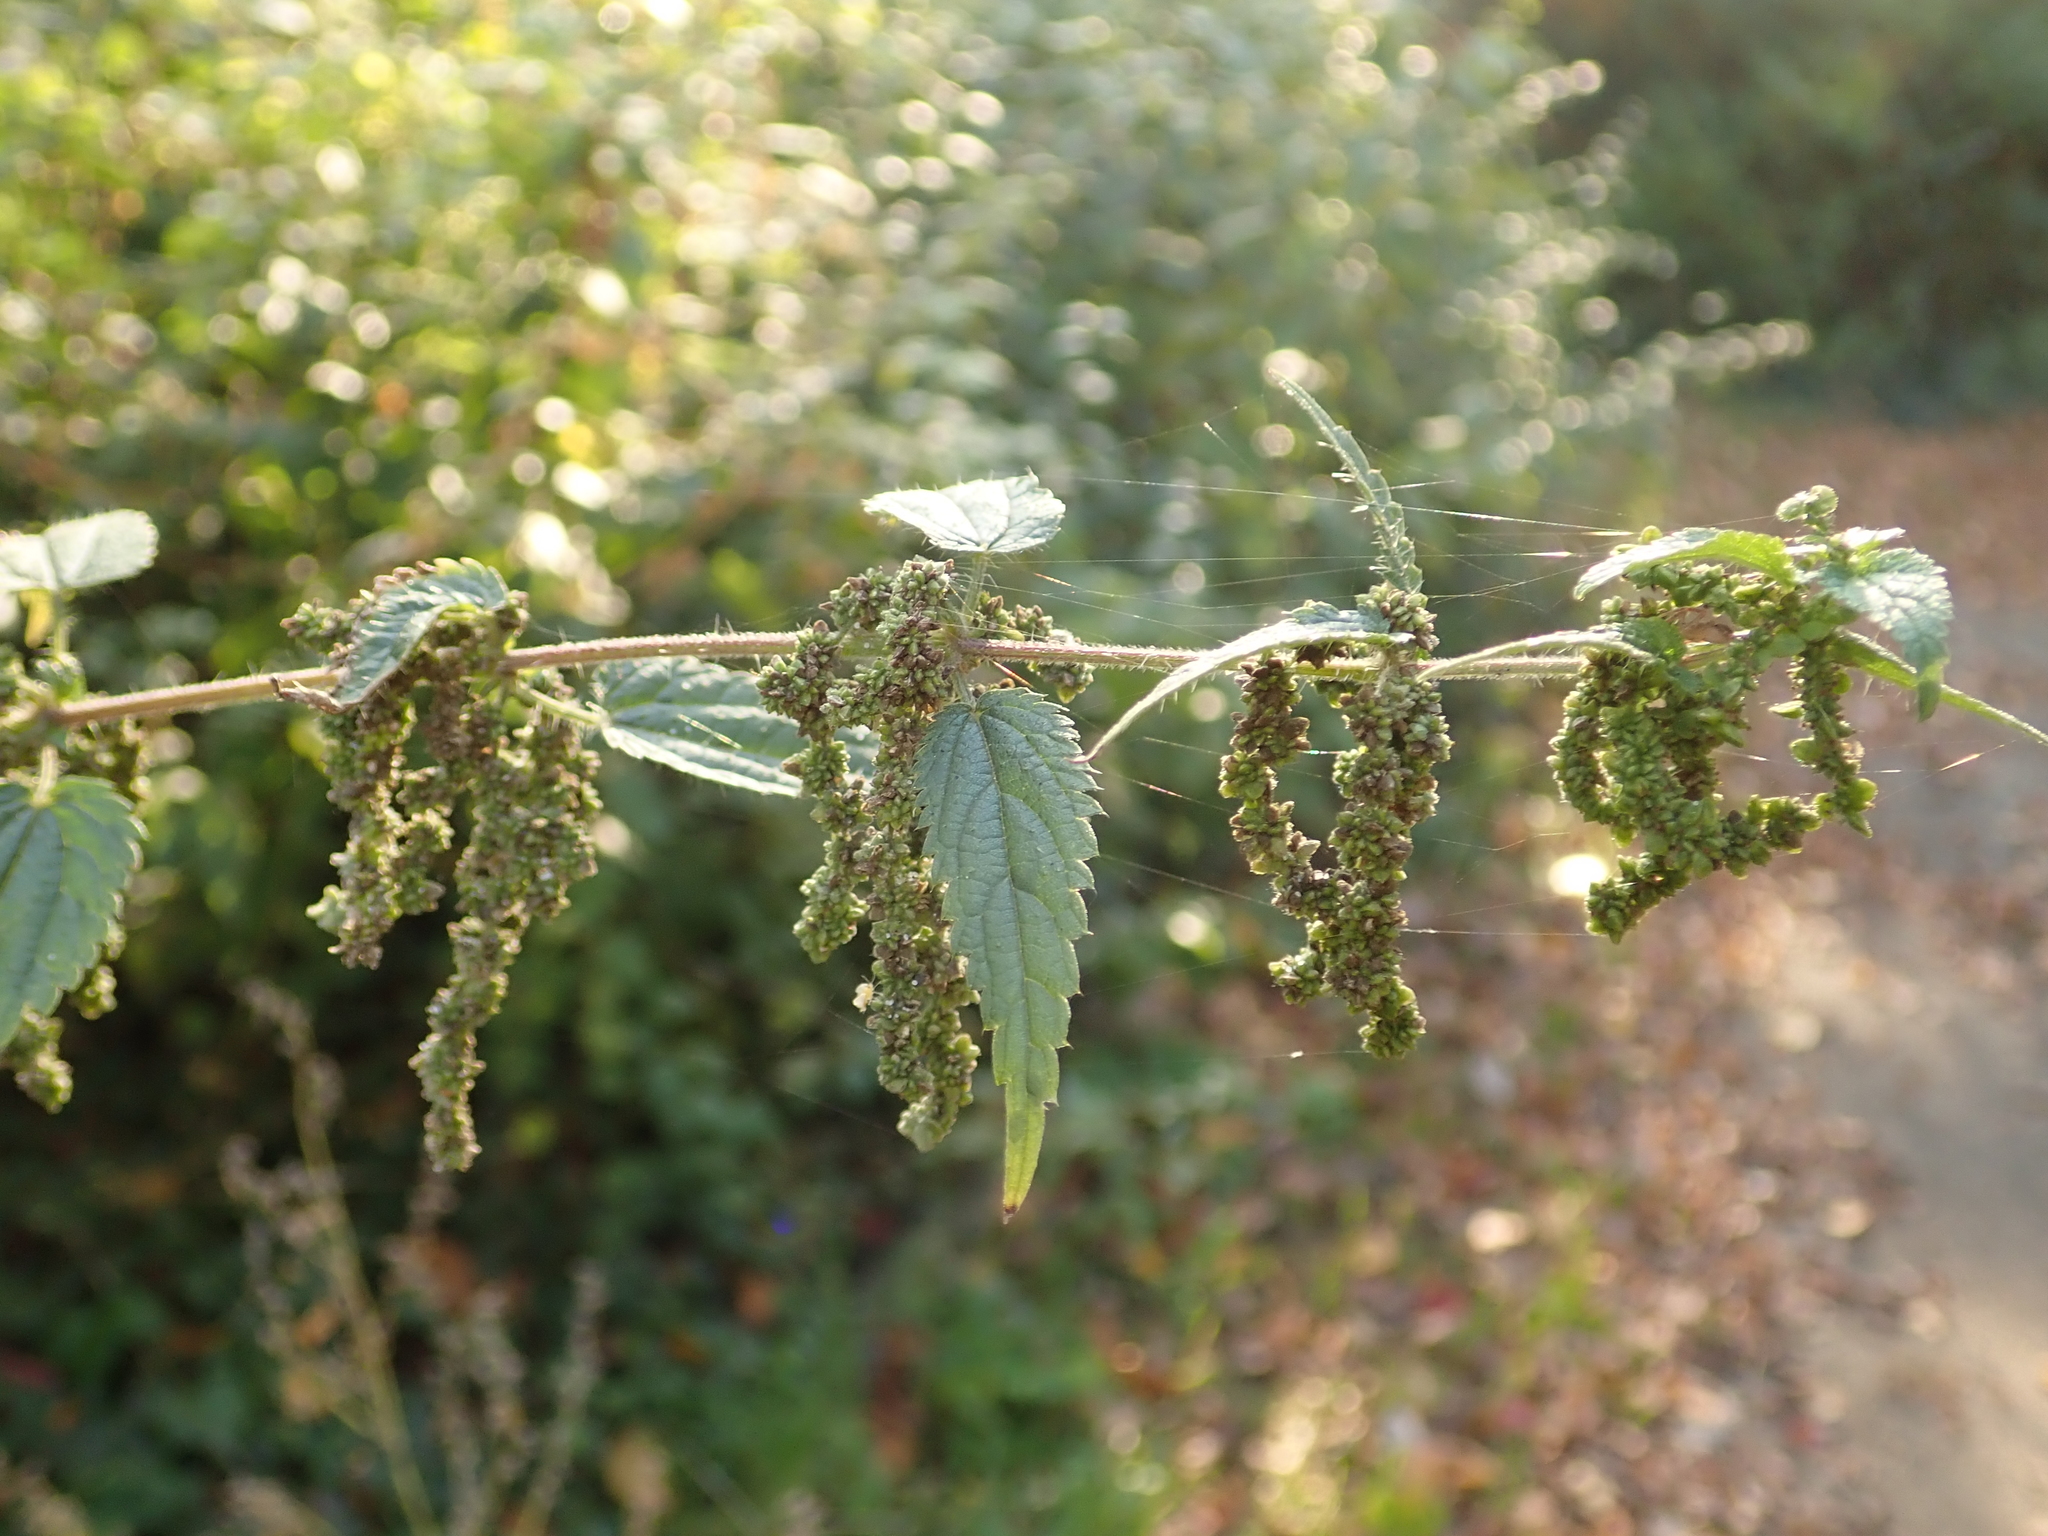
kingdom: Plantae
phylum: Tracheophyta
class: Magnoliopsida
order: Rosales
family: Urticaceae
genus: Urtica
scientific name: Urtica dioica
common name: Common nettle
